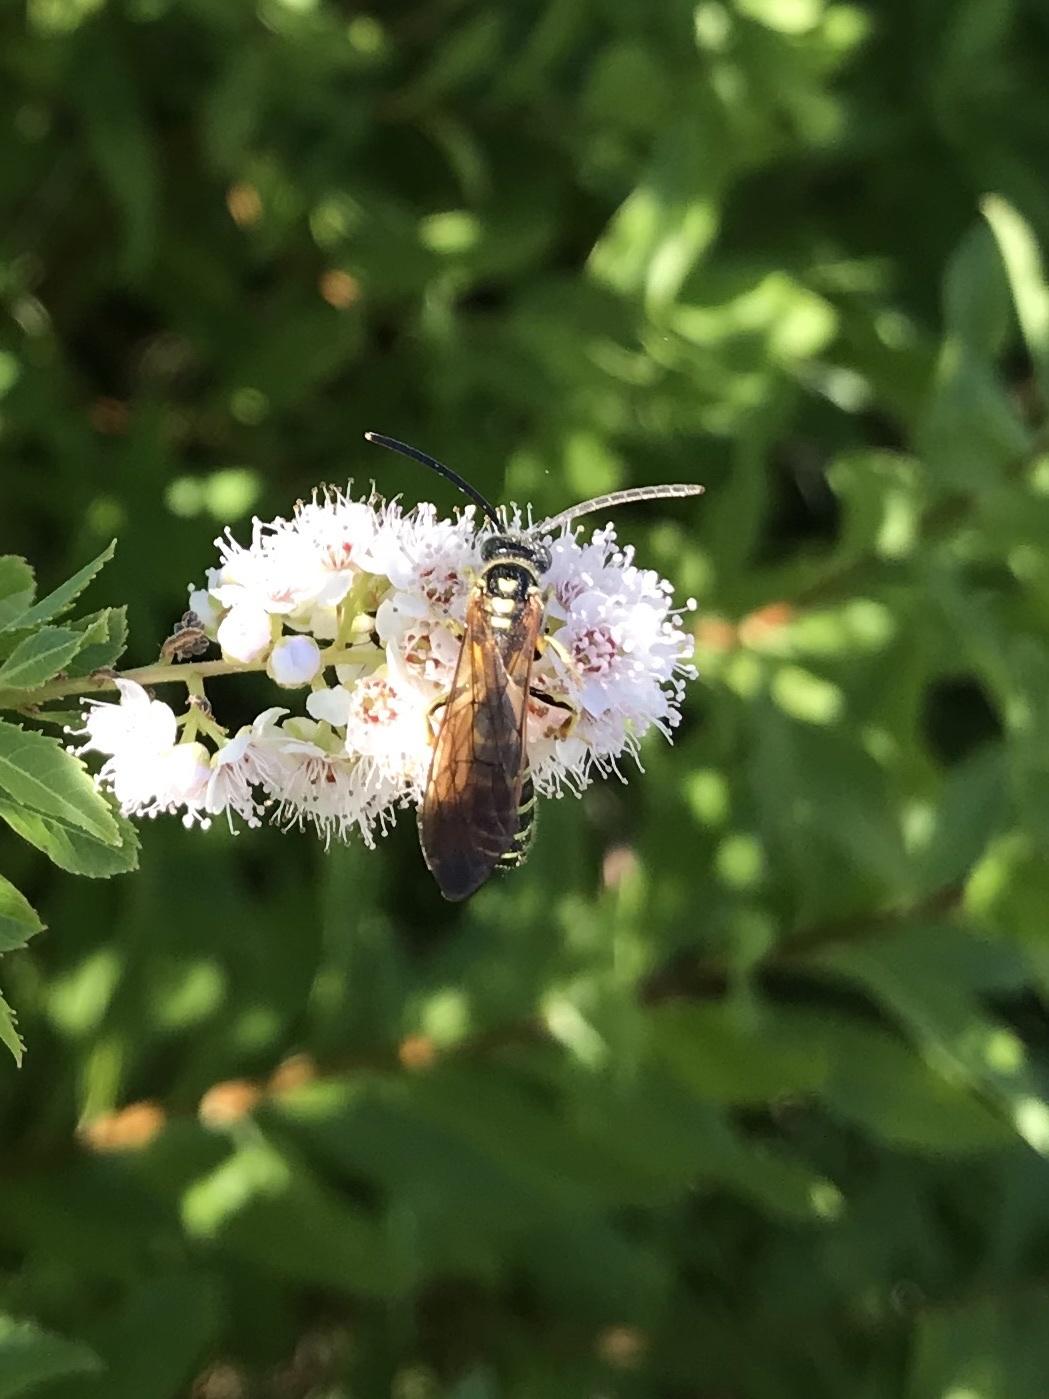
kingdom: Animalia
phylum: Arthropoda
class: Insecta
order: Hymenoptera
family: Tiphiidae
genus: Myzinum
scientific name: Myzinum quinquecinctum
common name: Five-banded thynnid wasp
